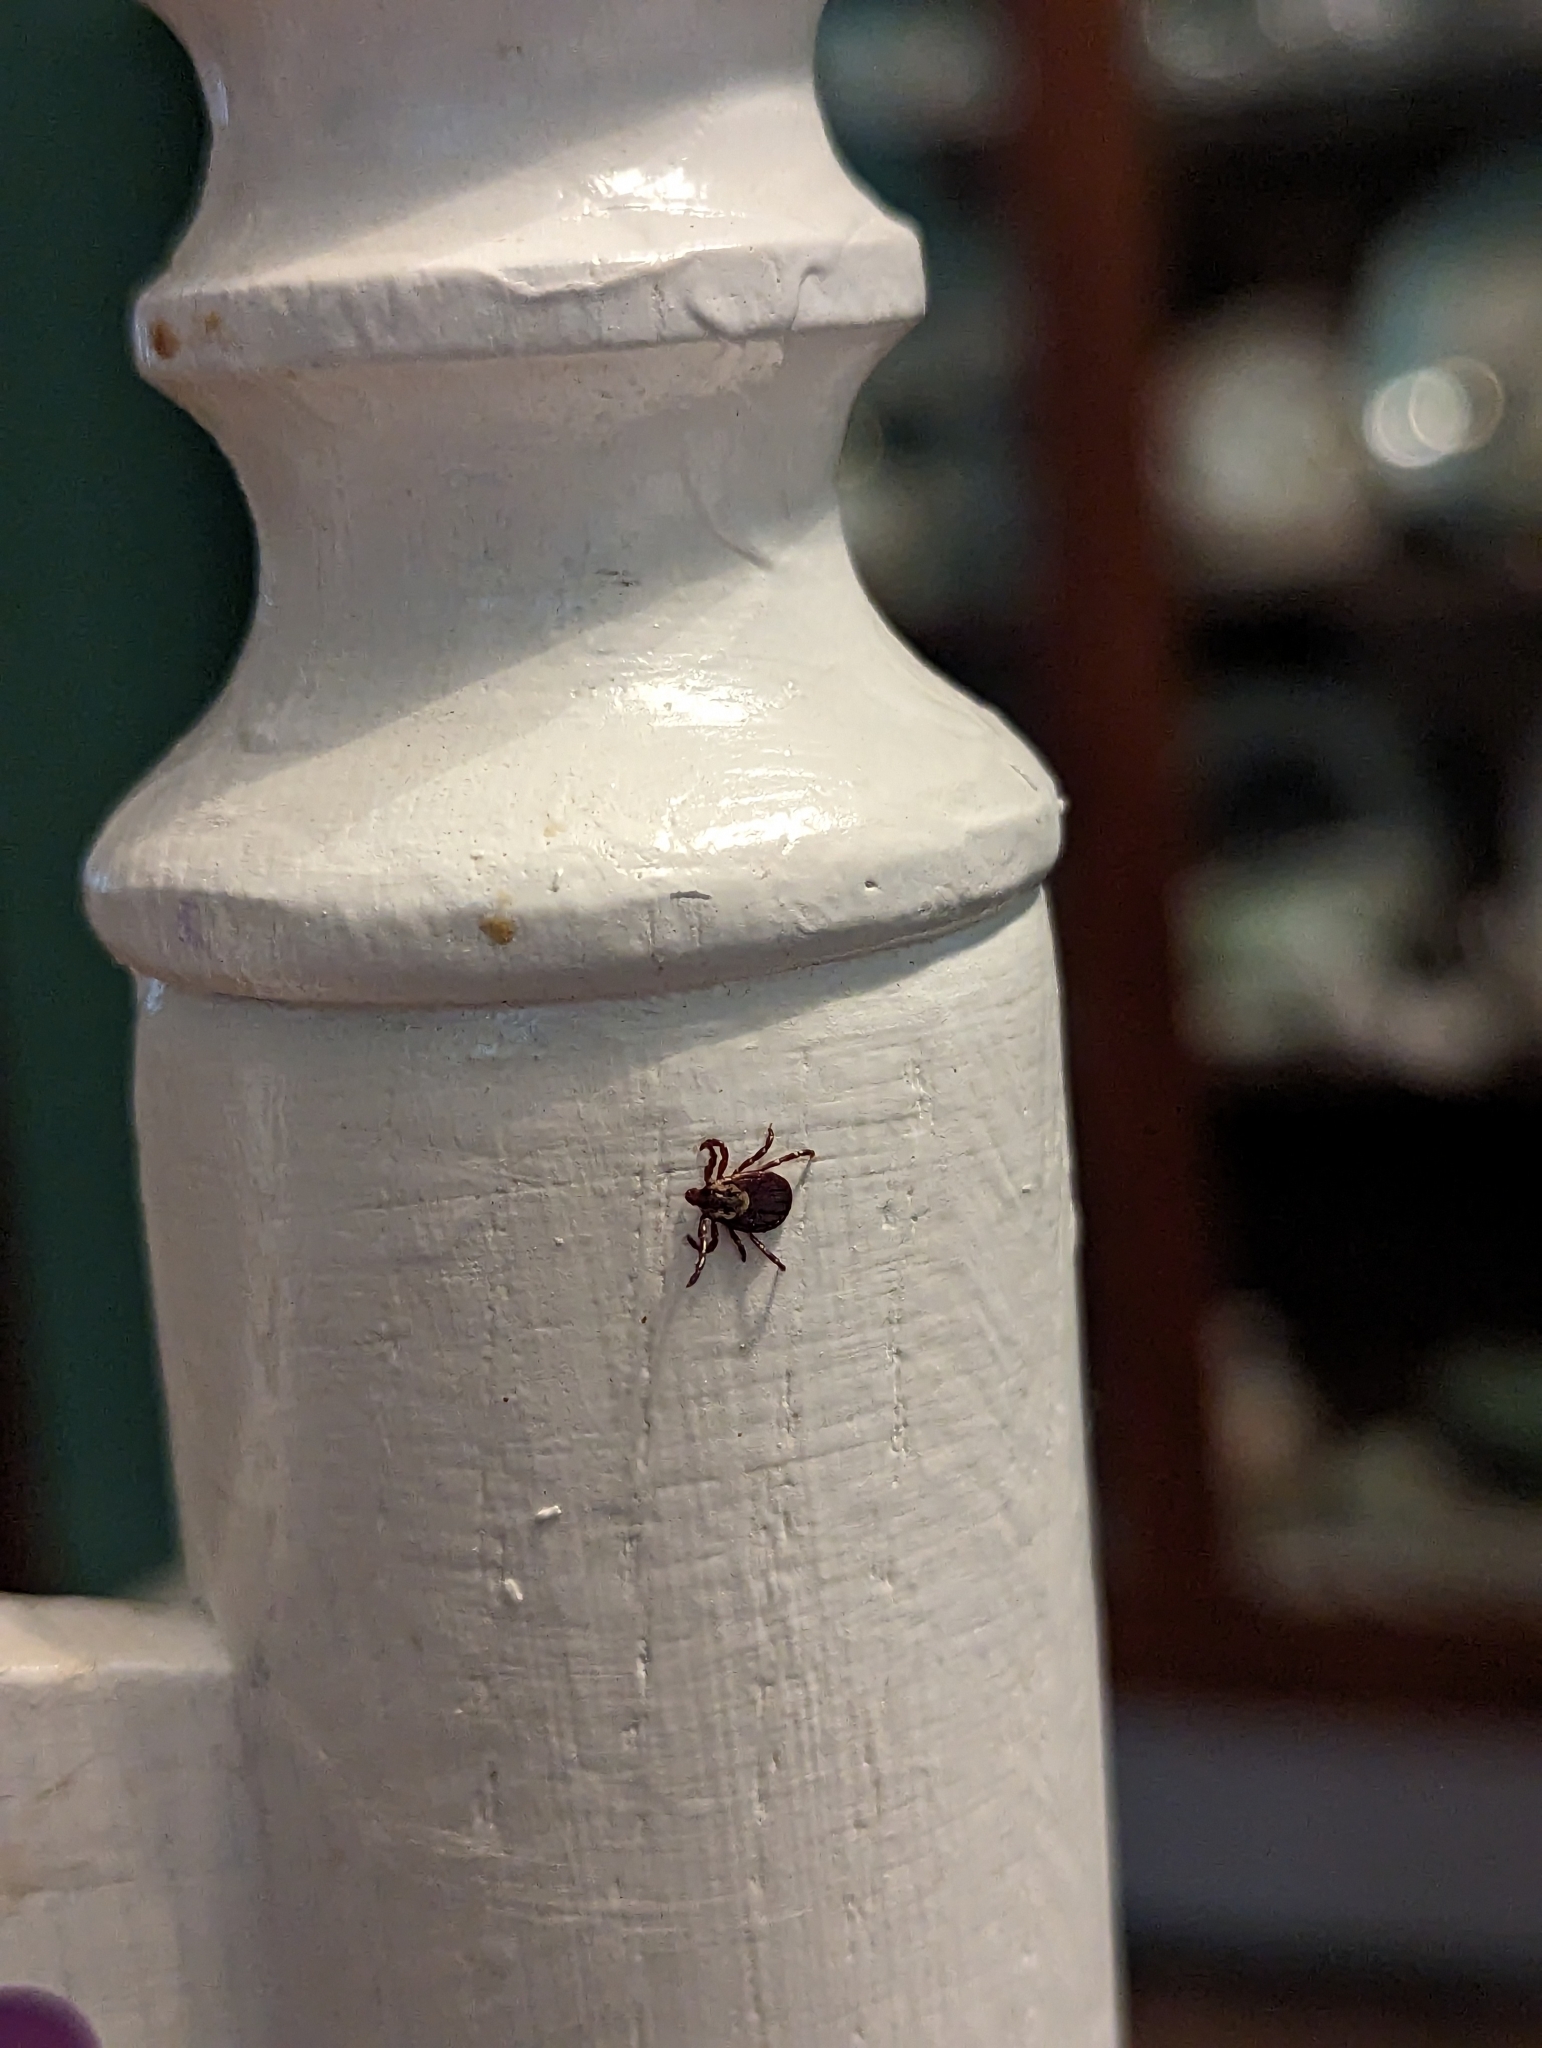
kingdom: Animalia
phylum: Arthropoda
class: Arachnida
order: Ixodida
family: Ixodidae
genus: Dermacentor
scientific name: Dermacentor variabilis
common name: American dog tick
